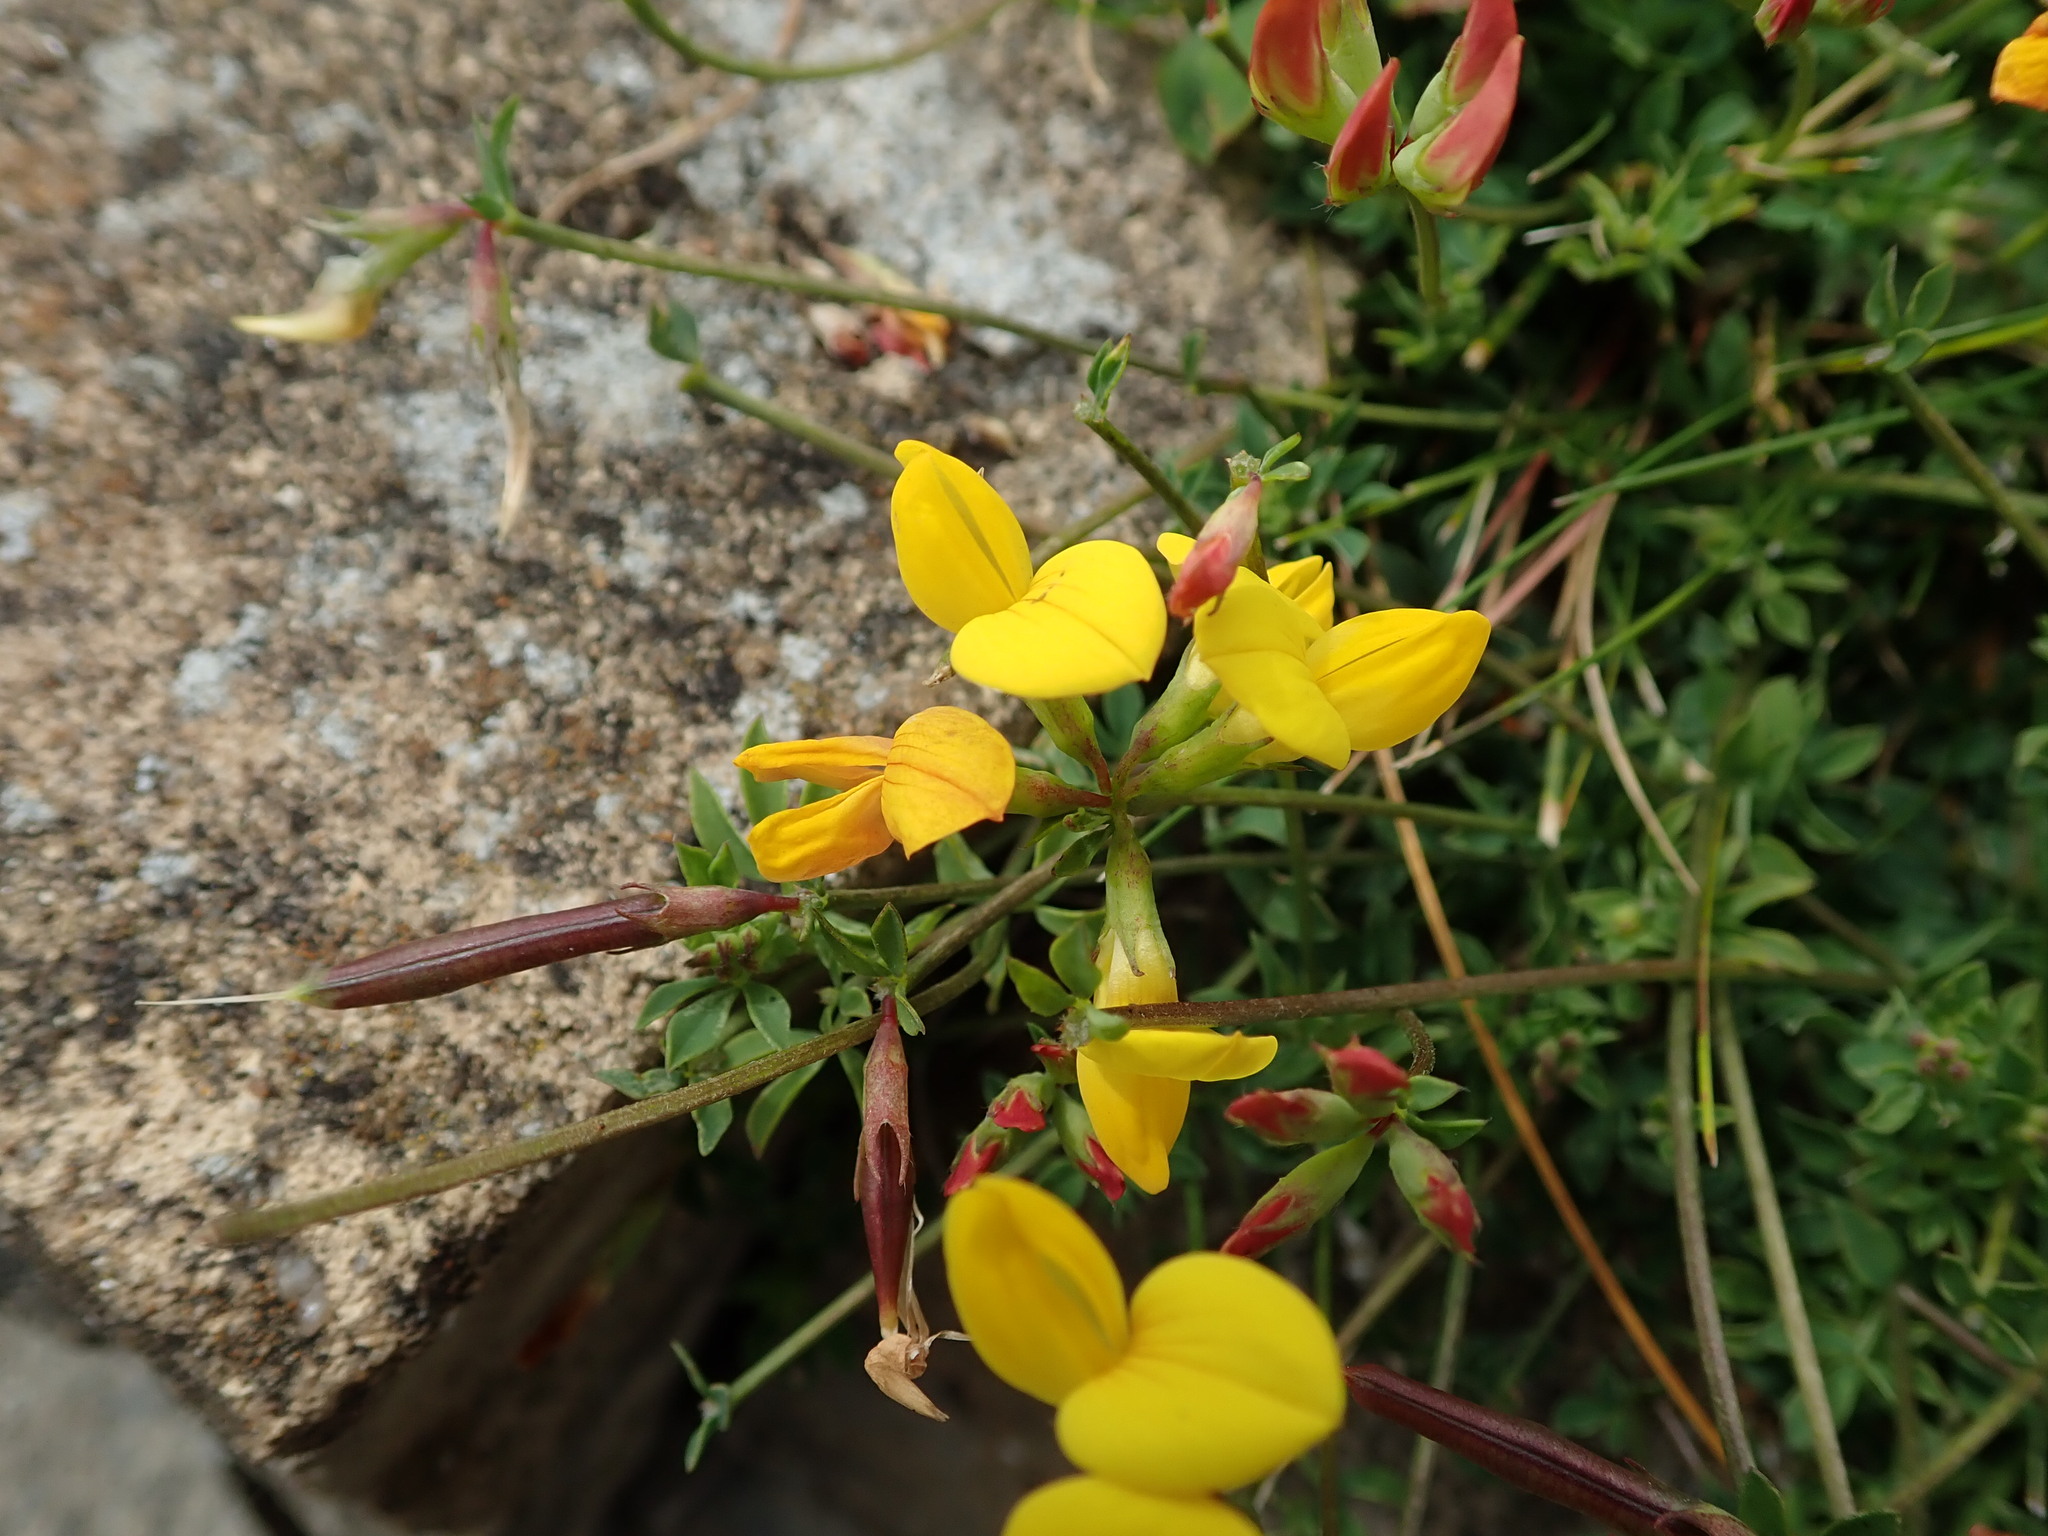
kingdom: Plantae
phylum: Tracheophyta
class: Magnoliopsida
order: Fabales
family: Fabaceae
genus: Lotus
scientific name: Lotus corniculatus
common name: Common bird's-foot-trefoil
